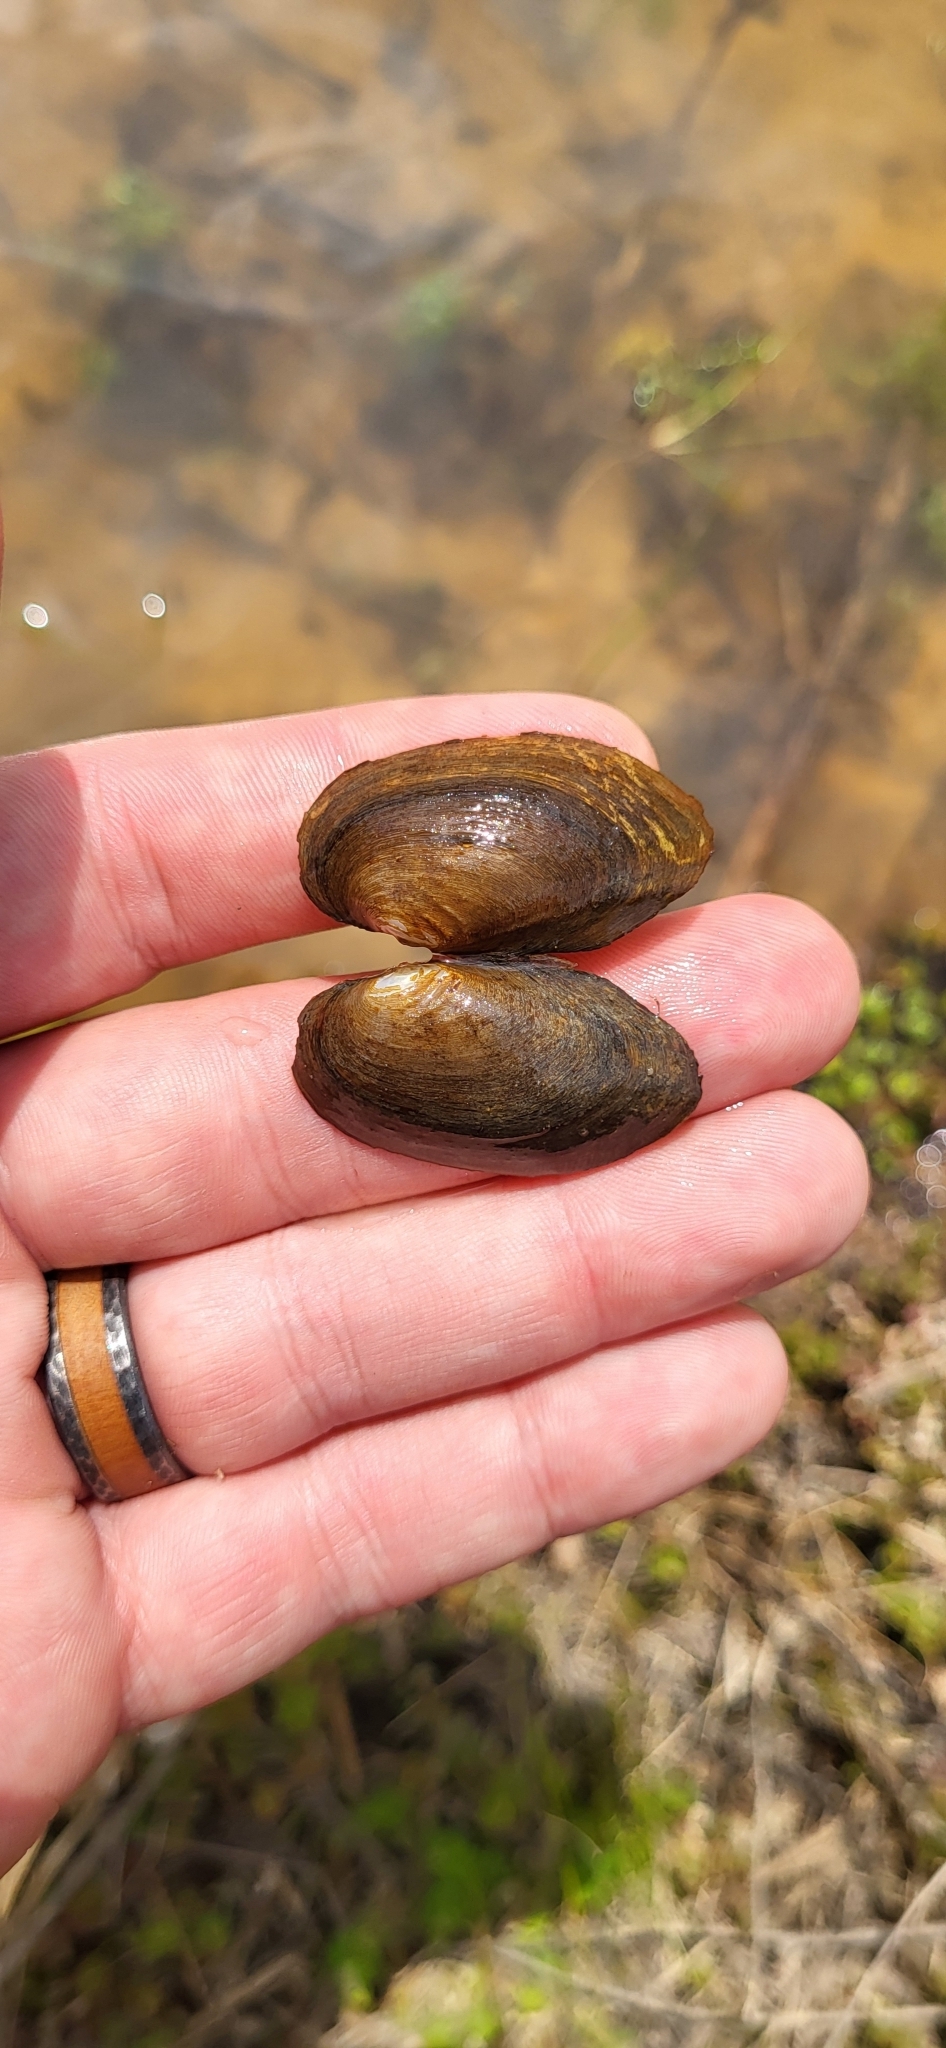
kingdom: Animalia
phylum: Mollusca
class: Bivalvia
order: Unionida
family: Unionidae
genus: Toxolasma
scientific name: Toxolasma texasiense
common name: Texas lilliput
